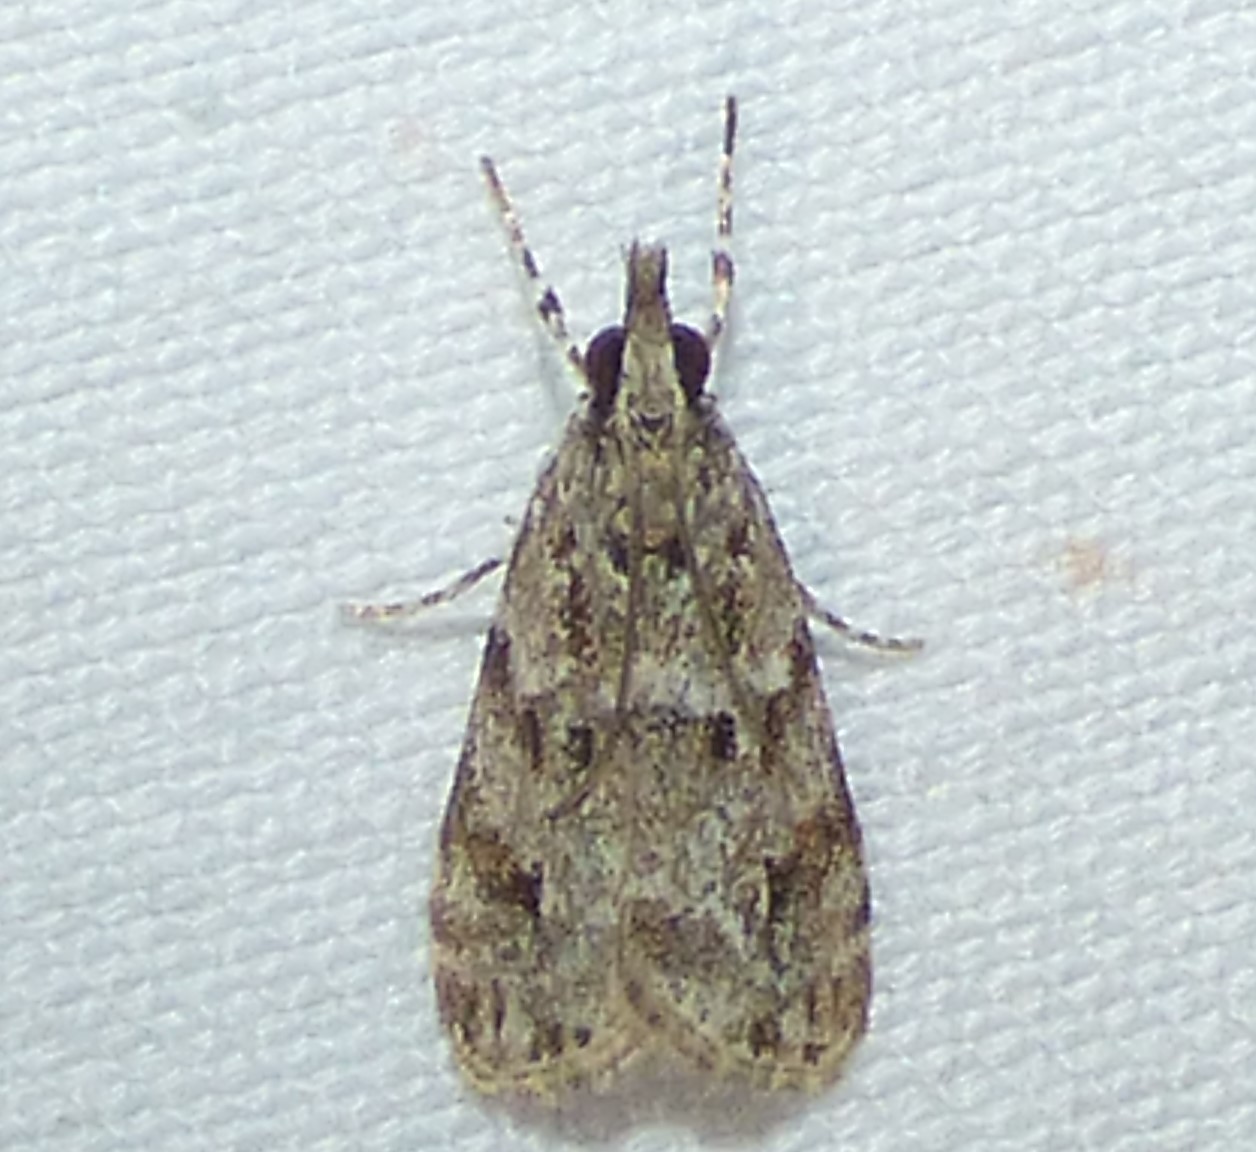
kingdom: Animalia
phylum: Arthropoda
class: Insecta
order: Lepidoptera
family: Crambidae
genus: Eudonia
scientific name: Eudonia heterosalis
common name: Mcdunnough's eudonia
